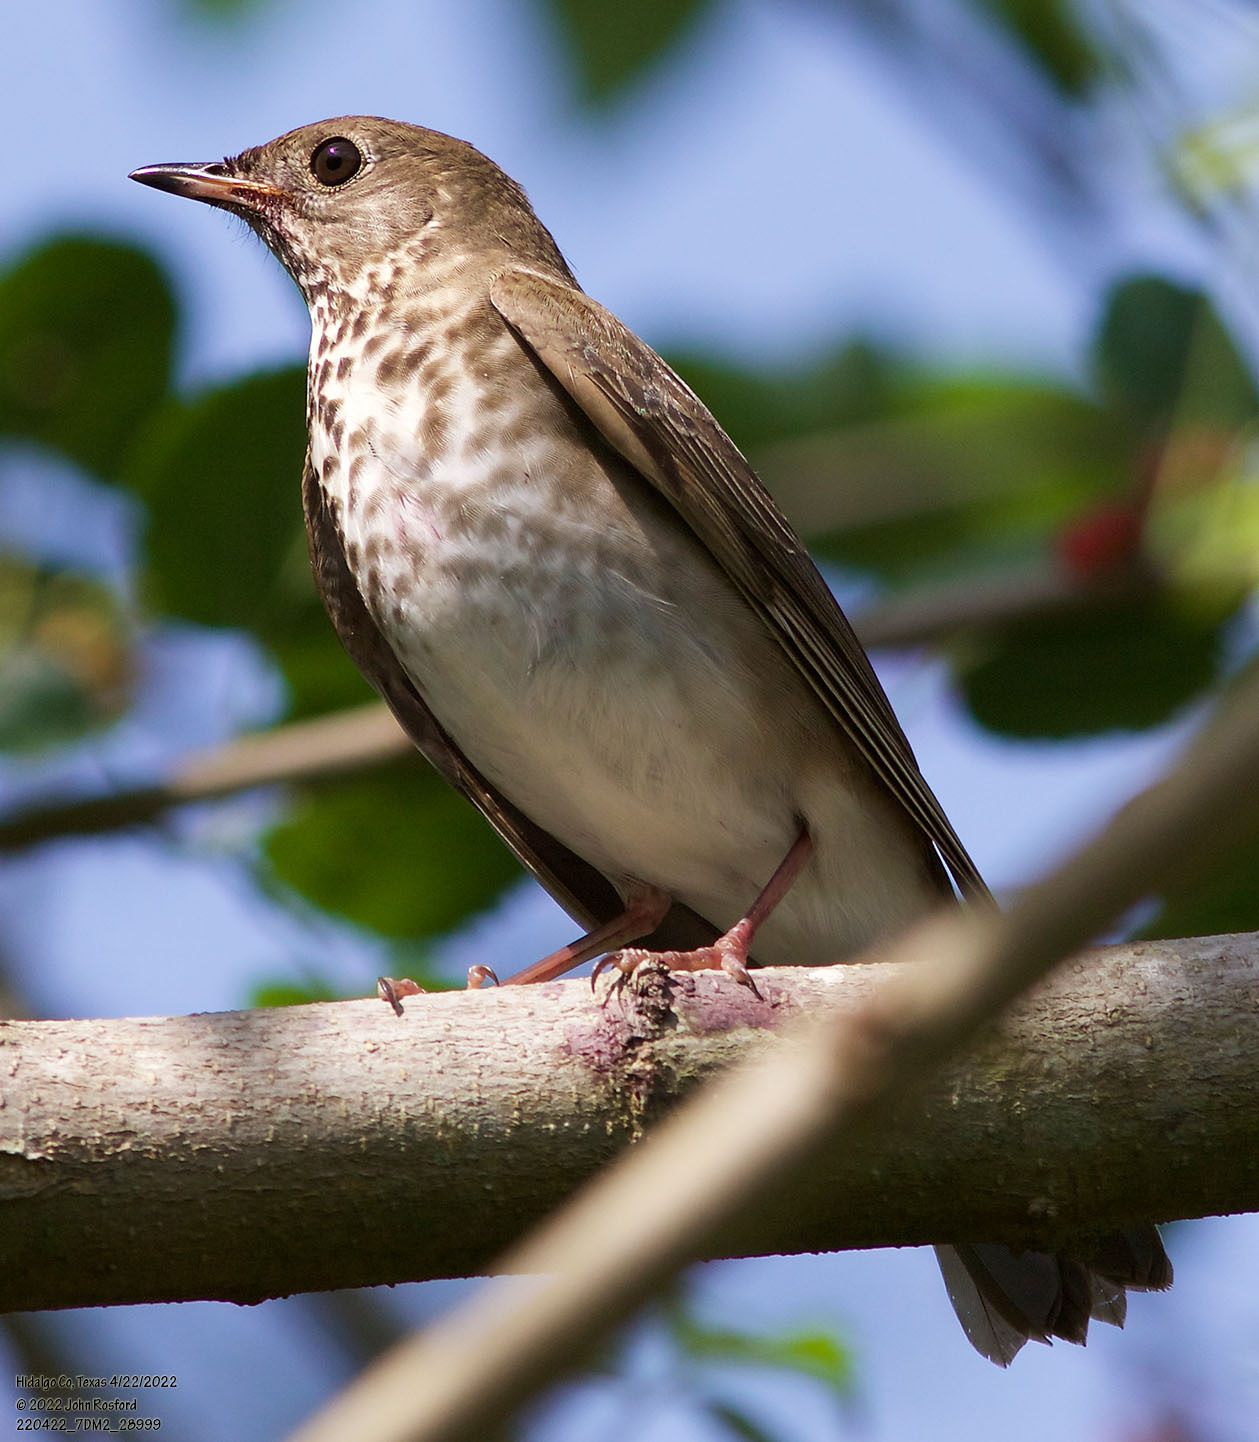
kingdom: Animalia
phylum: Chordata
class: Aves
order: Passeriformes
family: Turdidae
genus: Catharus
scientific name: Catharus minimus
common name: Grey-cheeked thrush
